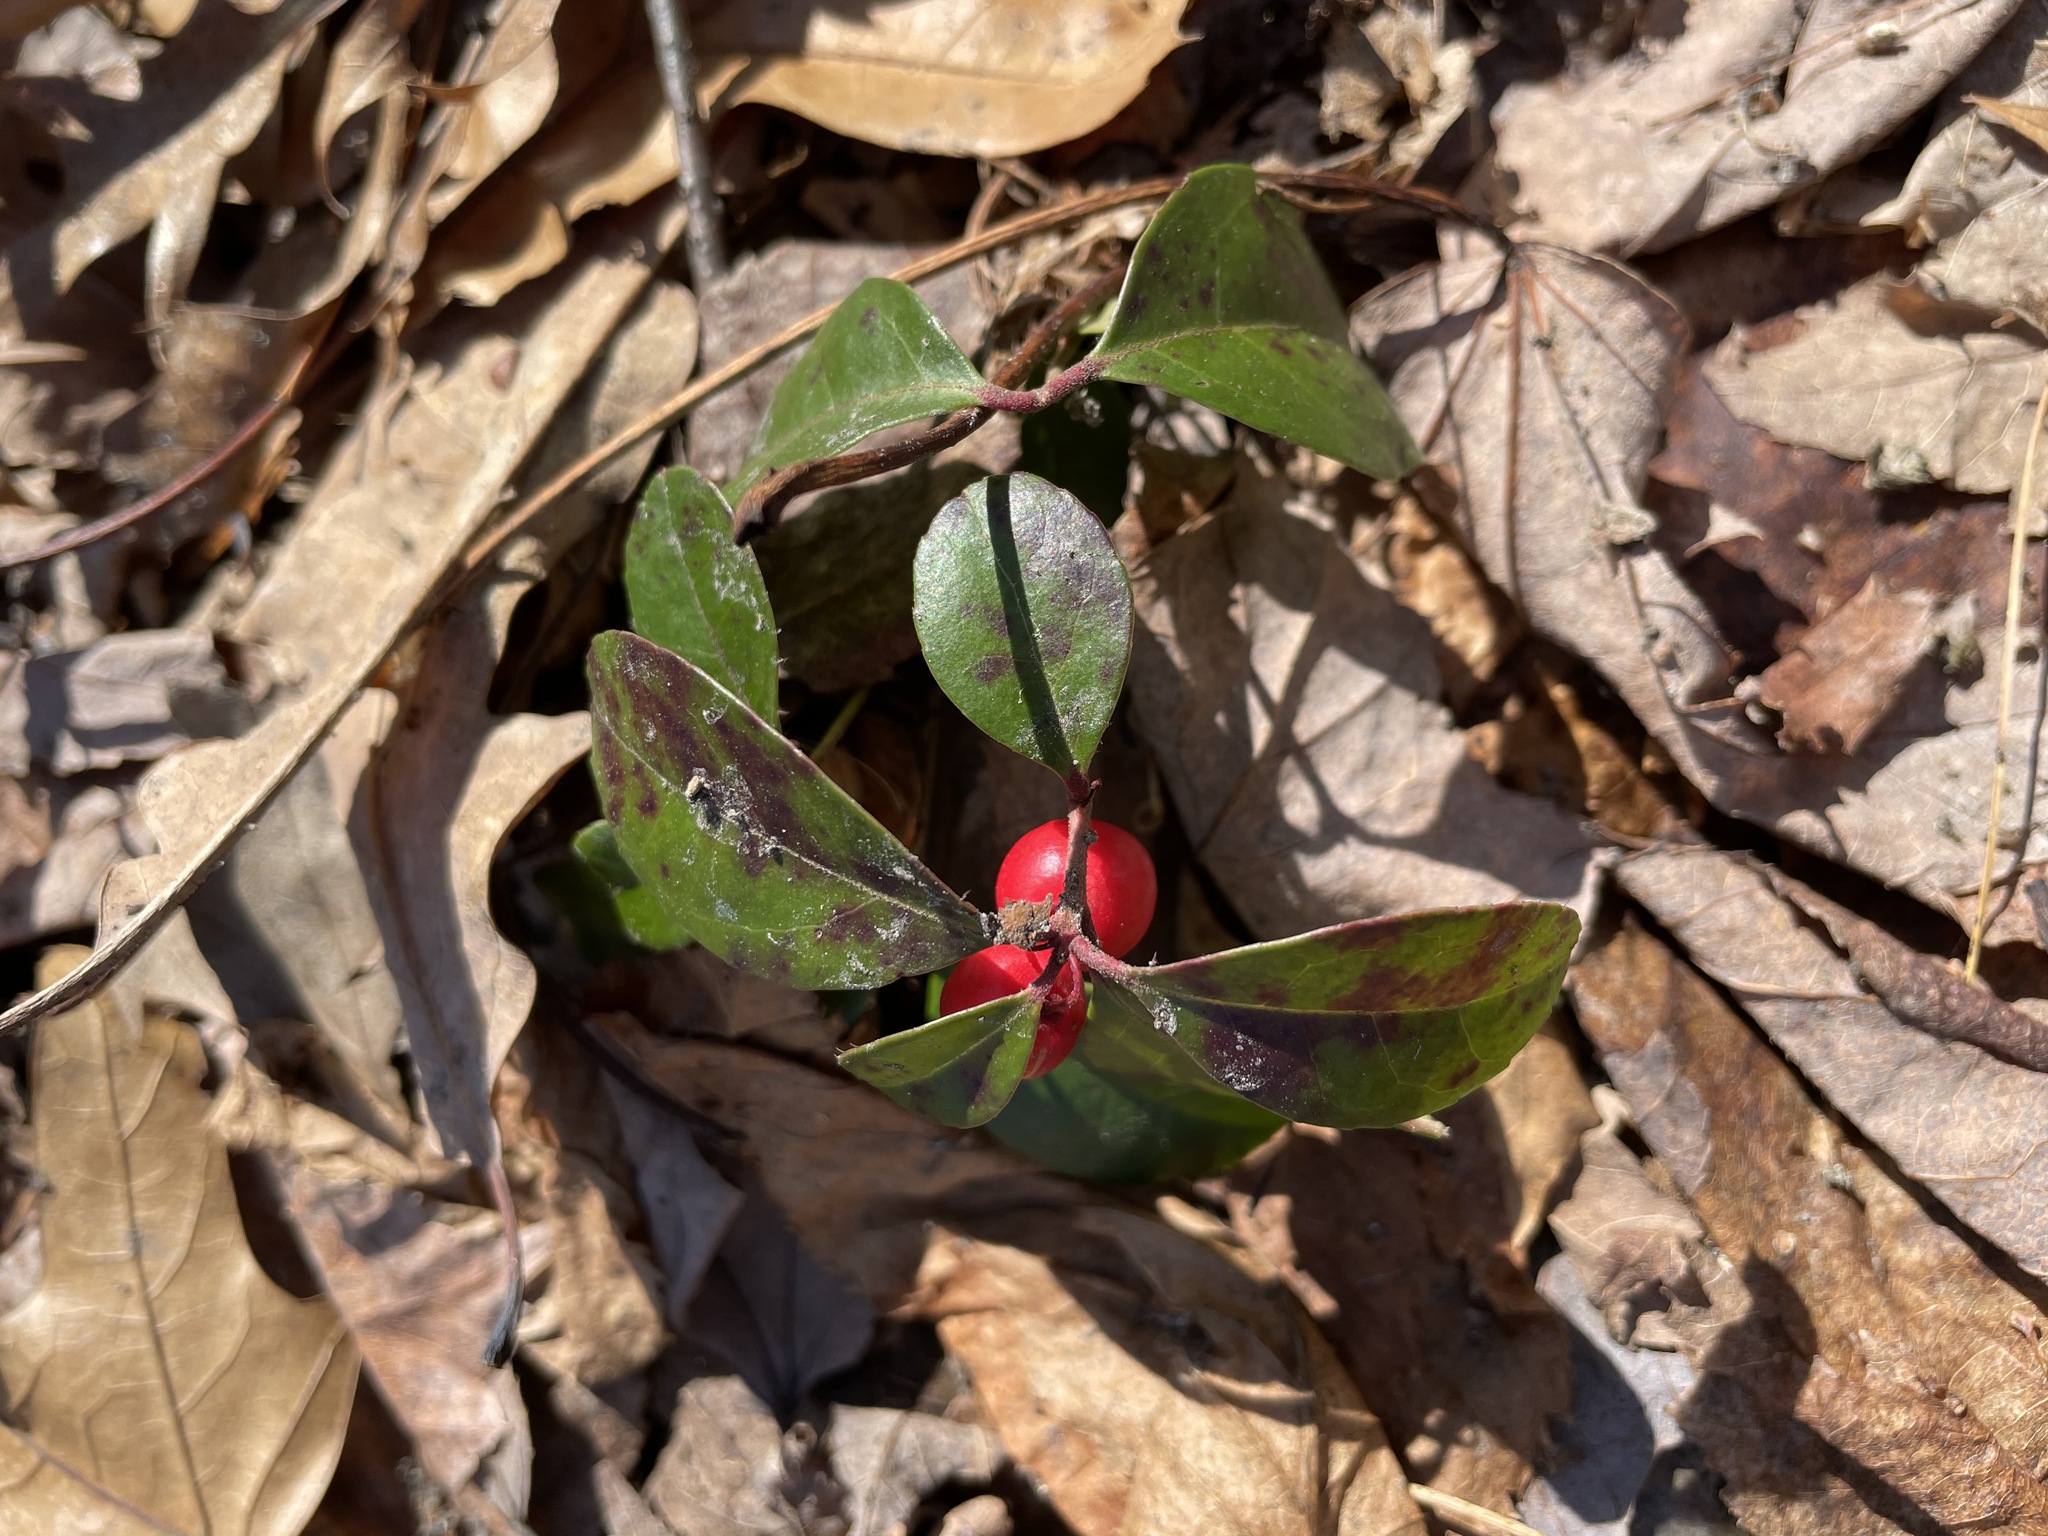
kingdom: Plantae
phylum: Tracheophyta
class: Magnoliopsida
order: Ericales
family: Ericaceae
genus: Gaultheria
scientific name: Gaultheria procumbens
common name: Checkerberry
